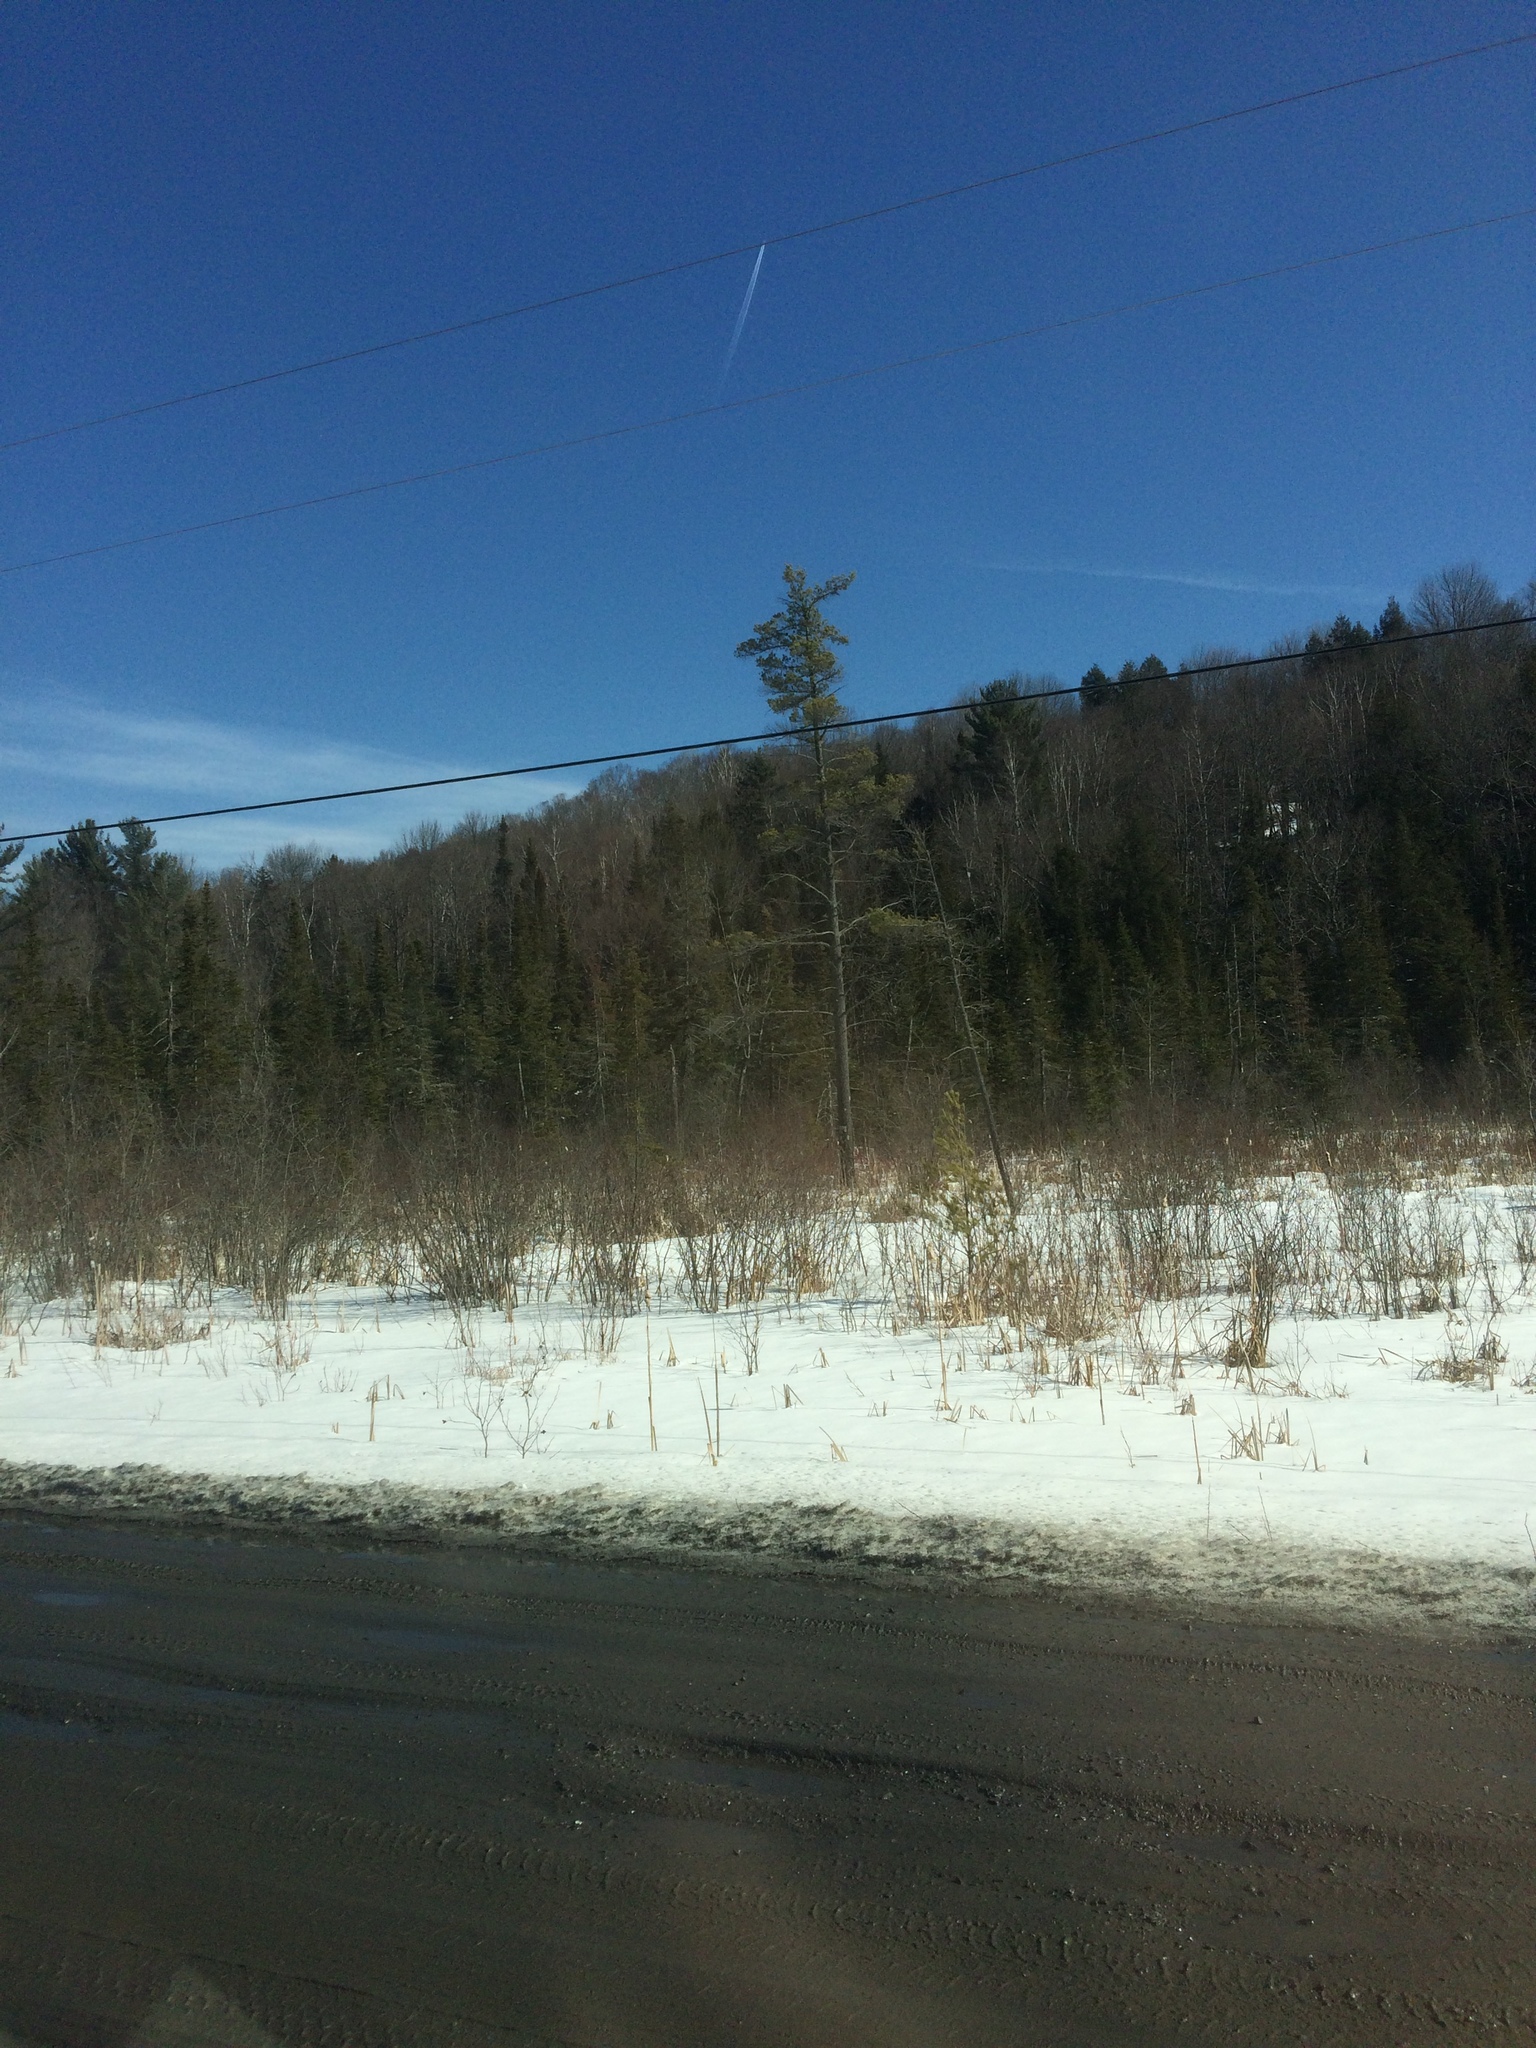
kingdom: Plantae
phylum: Tracheophyta
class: Pinopsida
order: Pinales
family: Pinaceae
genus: Pinus
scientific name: Pinus strobus
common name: Weymouth pine
